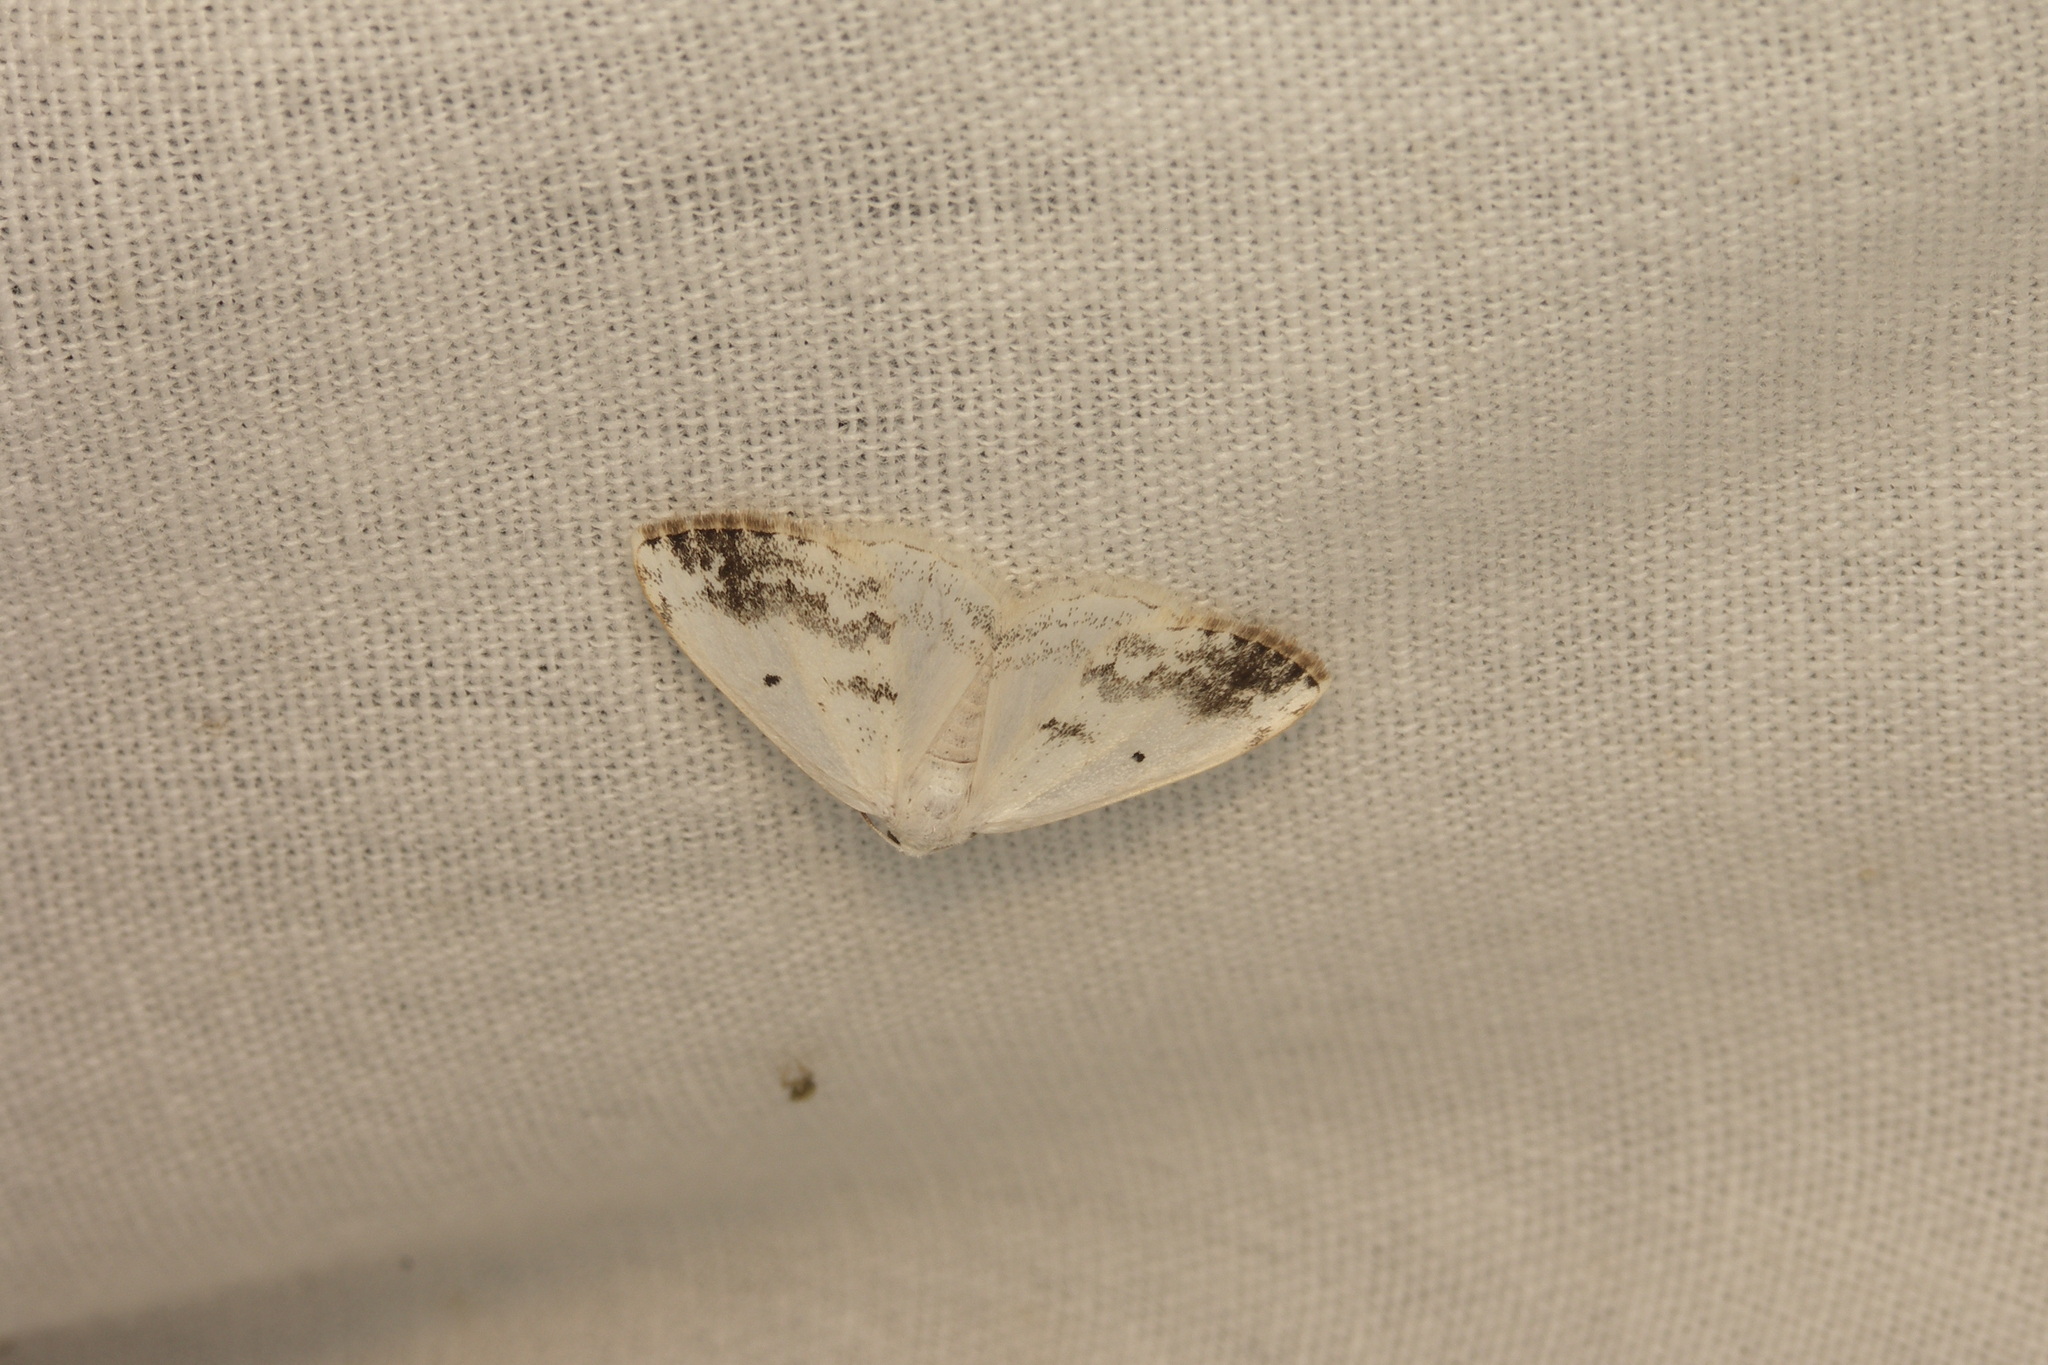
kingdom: Animalia
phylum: Arthropoda
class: Insecta
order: Lepidoptera
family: Geometridae
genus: Lomographa
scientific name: Lomographa temerata
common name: Clouded silver
